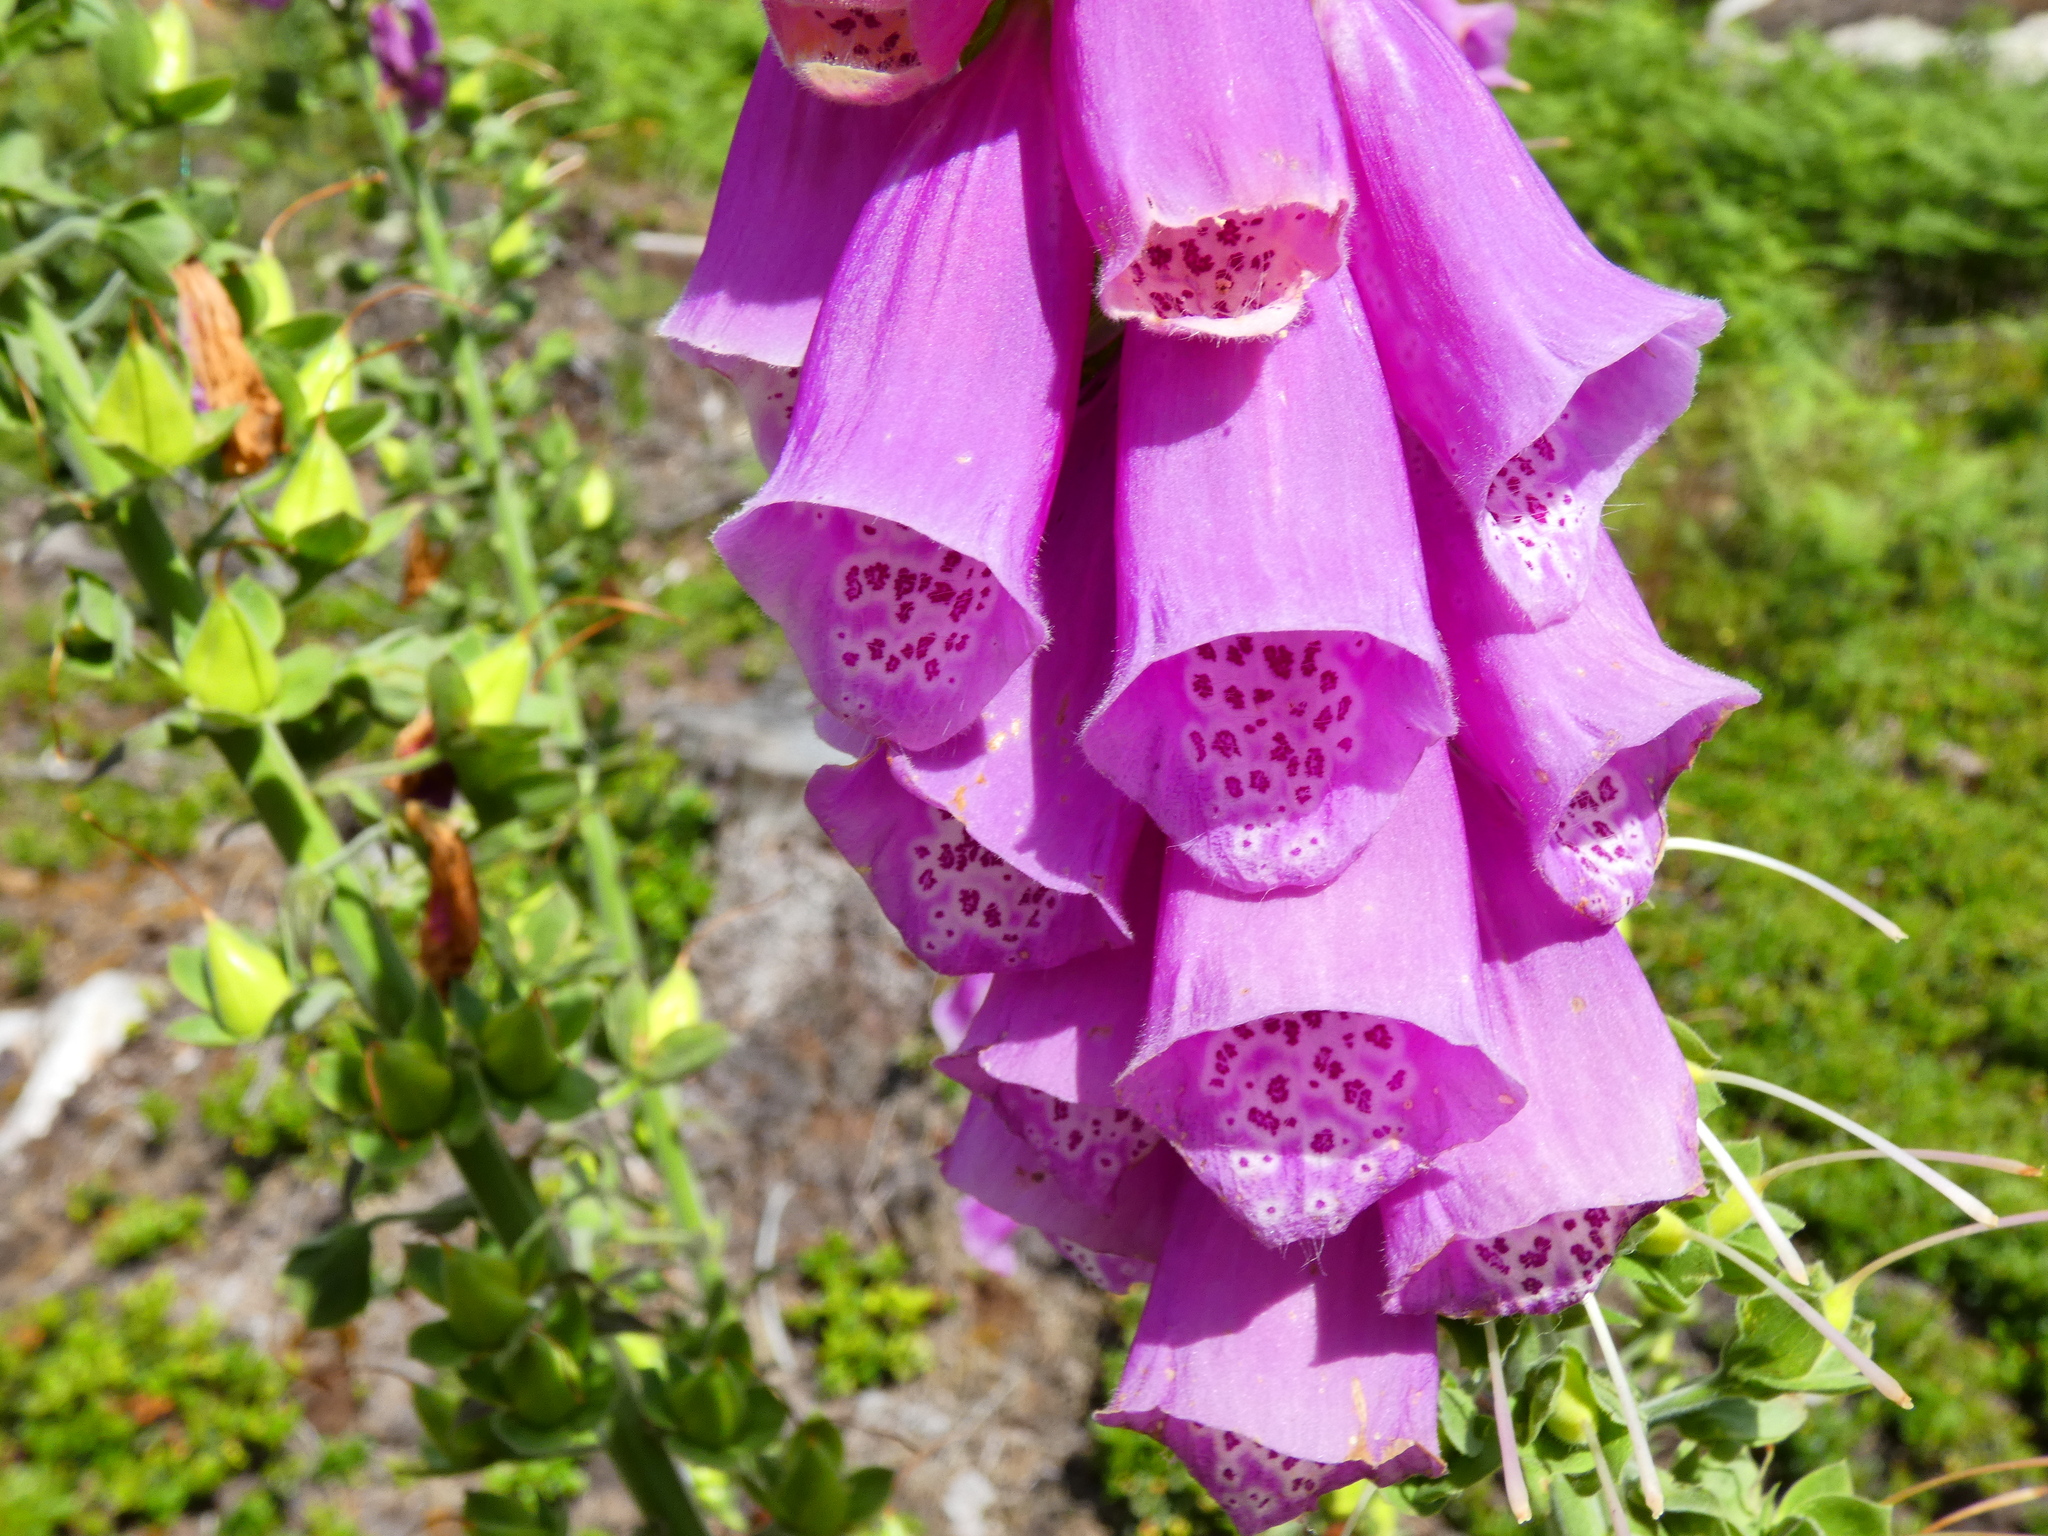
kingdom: Plantae
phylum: Tracheophyta
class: Magnoliopsida
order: Lamiales
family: Plantaginaceae
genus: Digitalis
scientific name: Digitalis purpurea
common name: Foxglove
